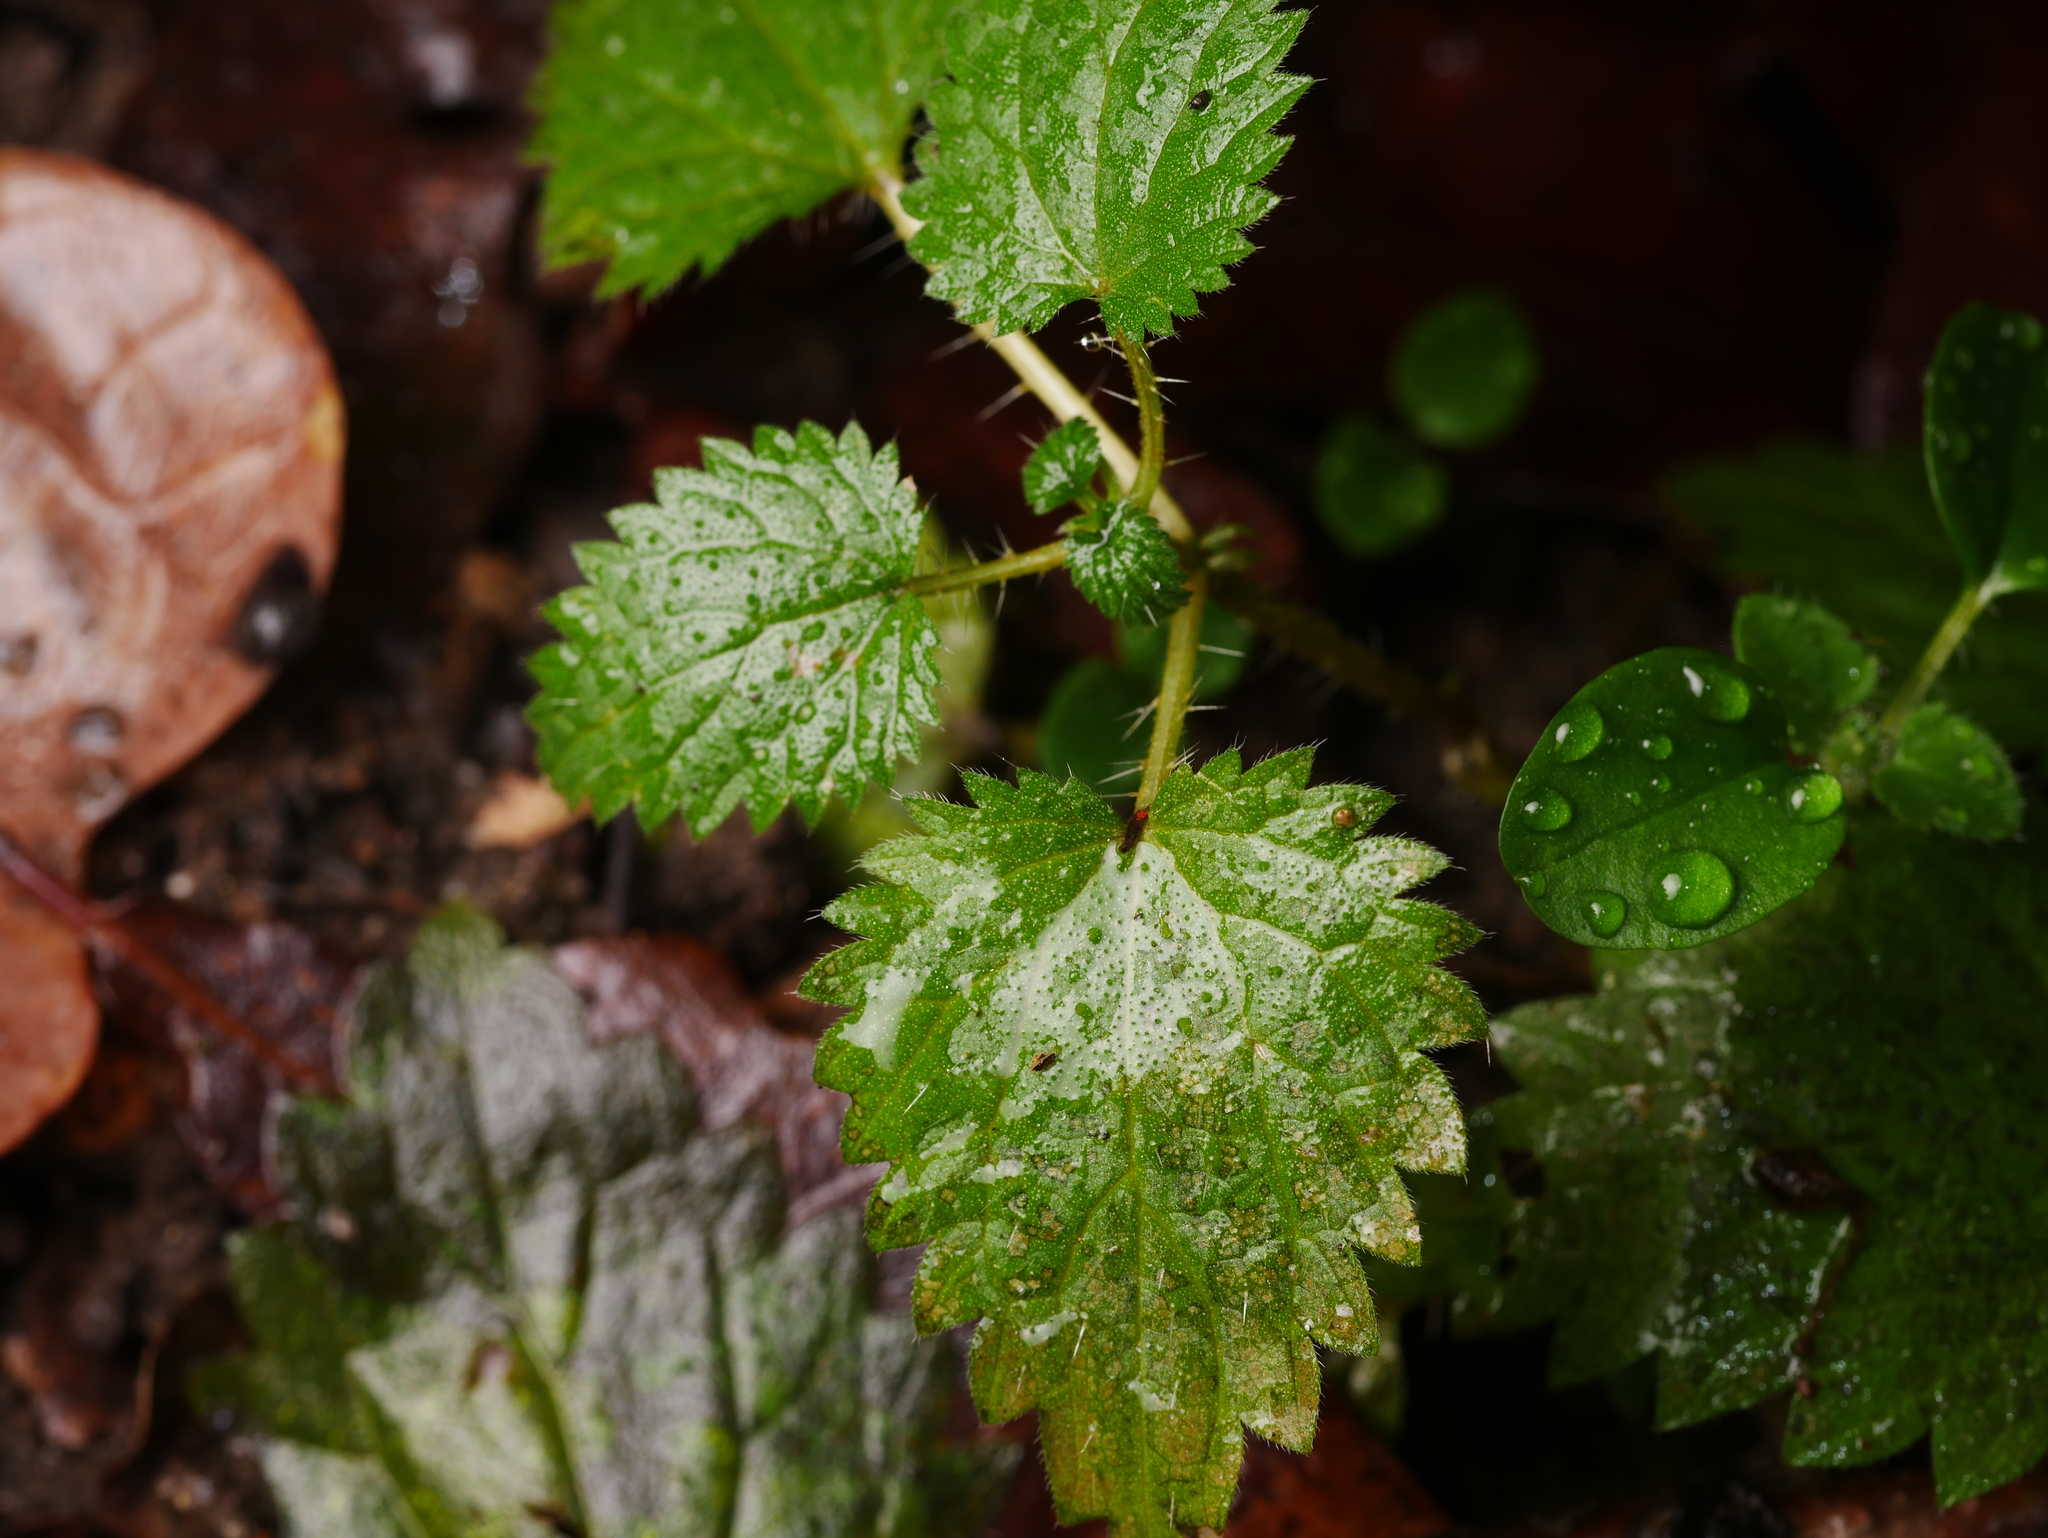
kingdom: Plantae
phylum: Tracheophyta
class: Magnoliopsida
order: Rosales
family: Urticaceae
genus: Urtica
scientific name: Urtica dioica
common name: Common nettle
